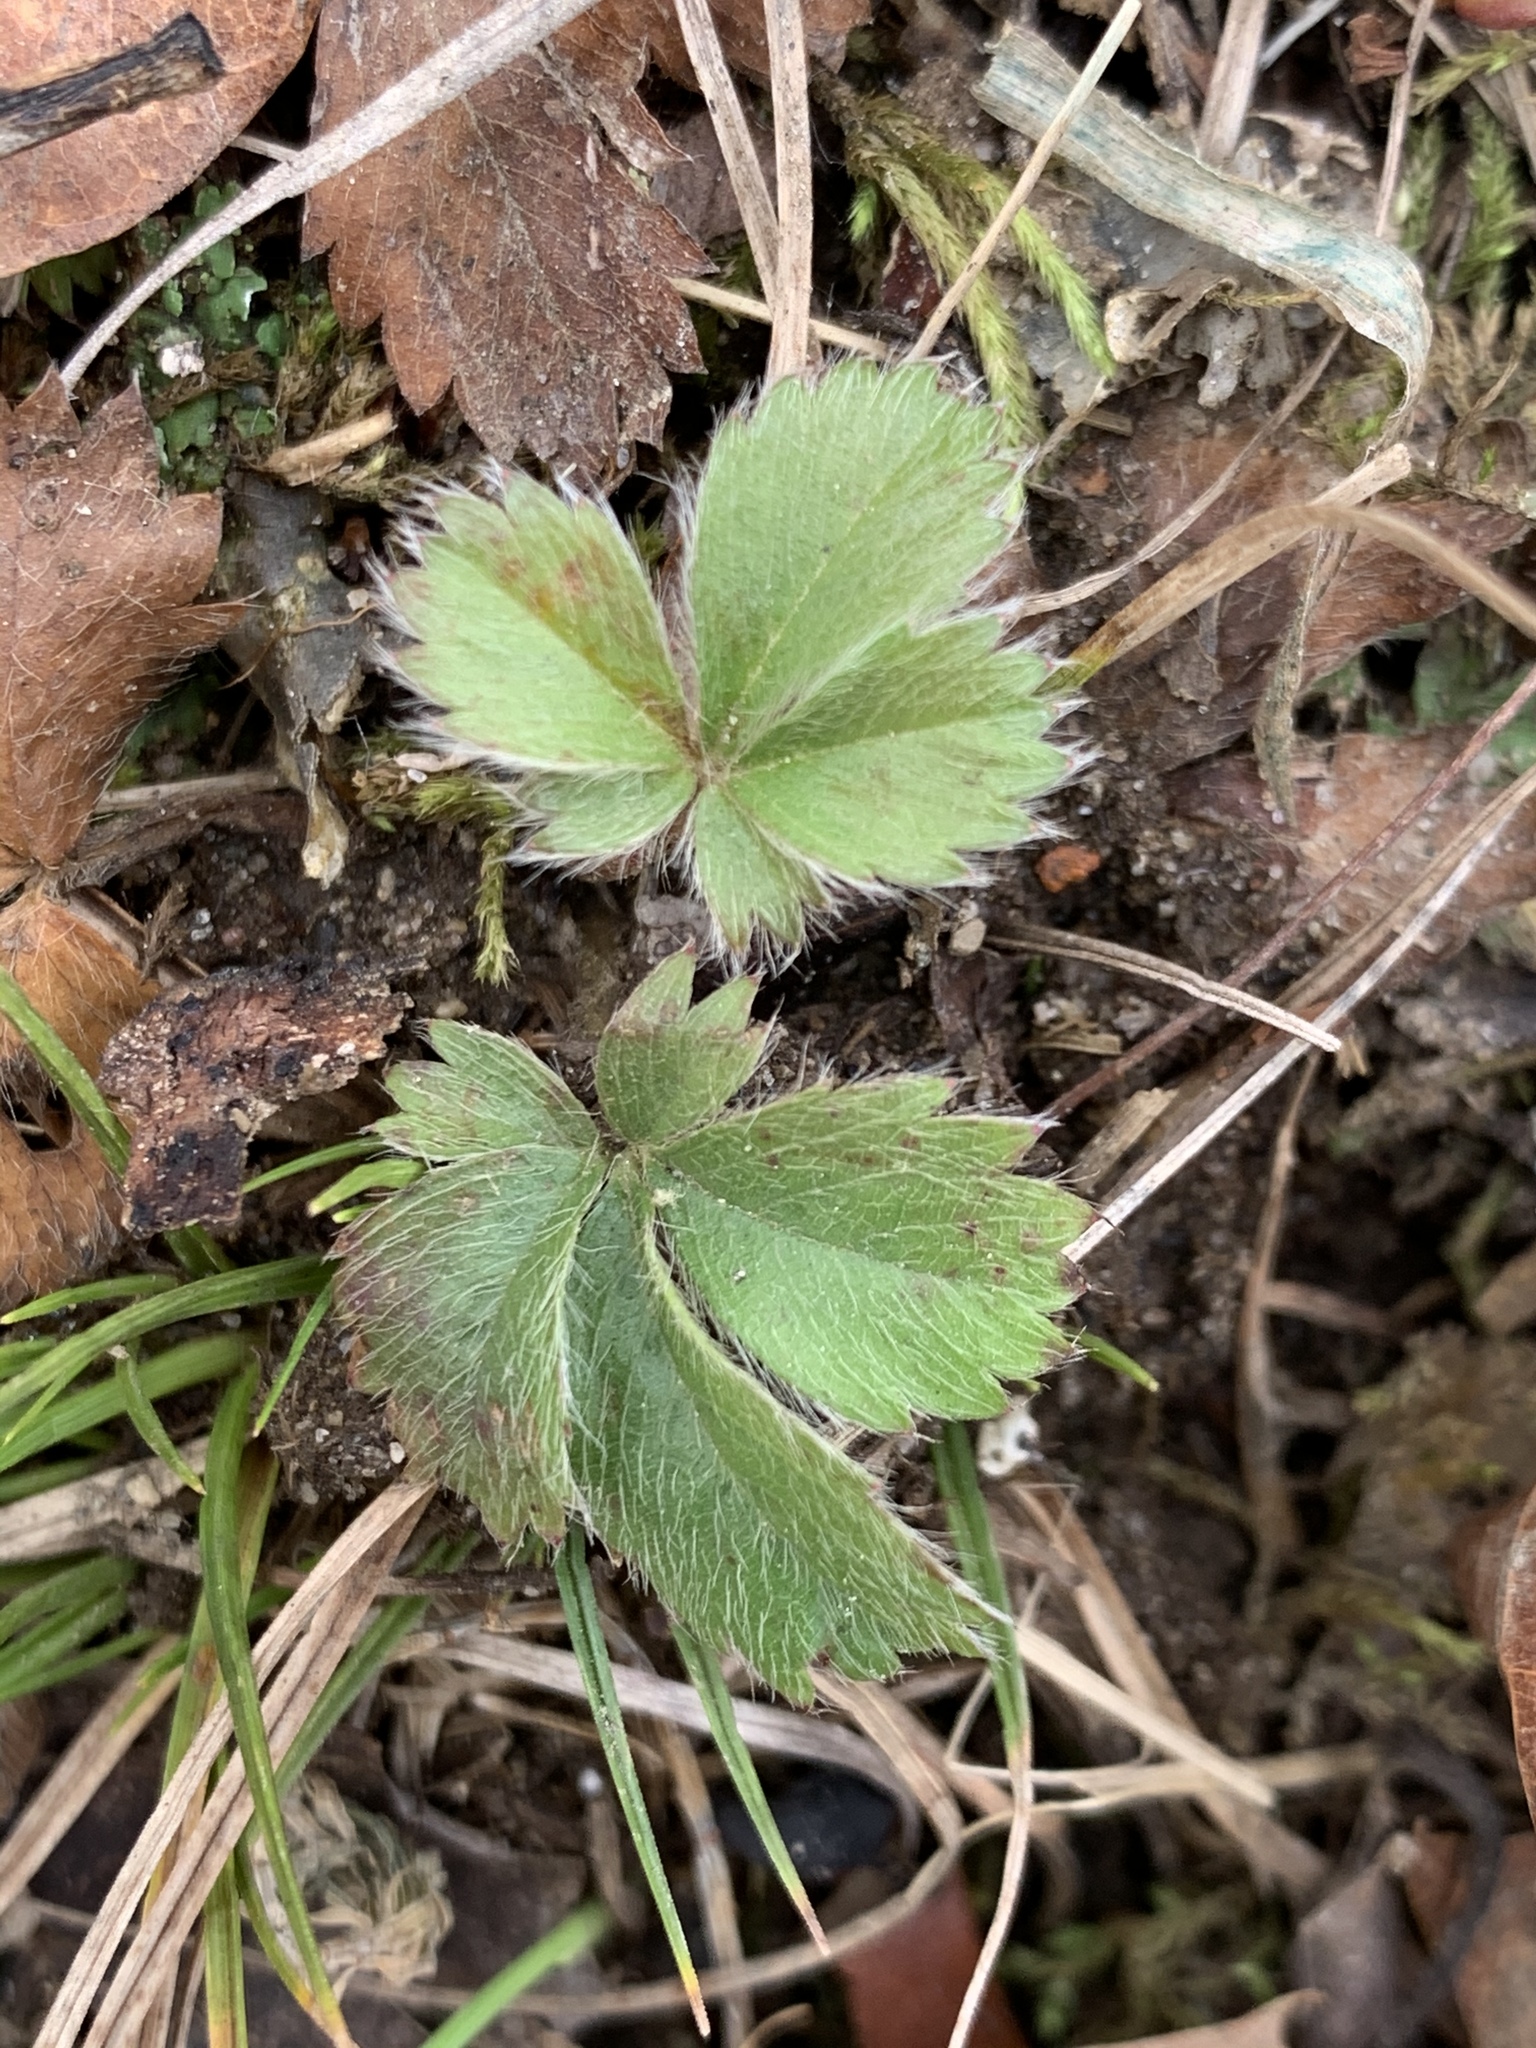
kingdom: Plantae
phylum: Tracheophyta
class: Magnoliopsida
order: Rosales
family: Rosaceae
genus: Potentilla
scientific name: Potentilla canadensis
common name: Canada cinquefoil
